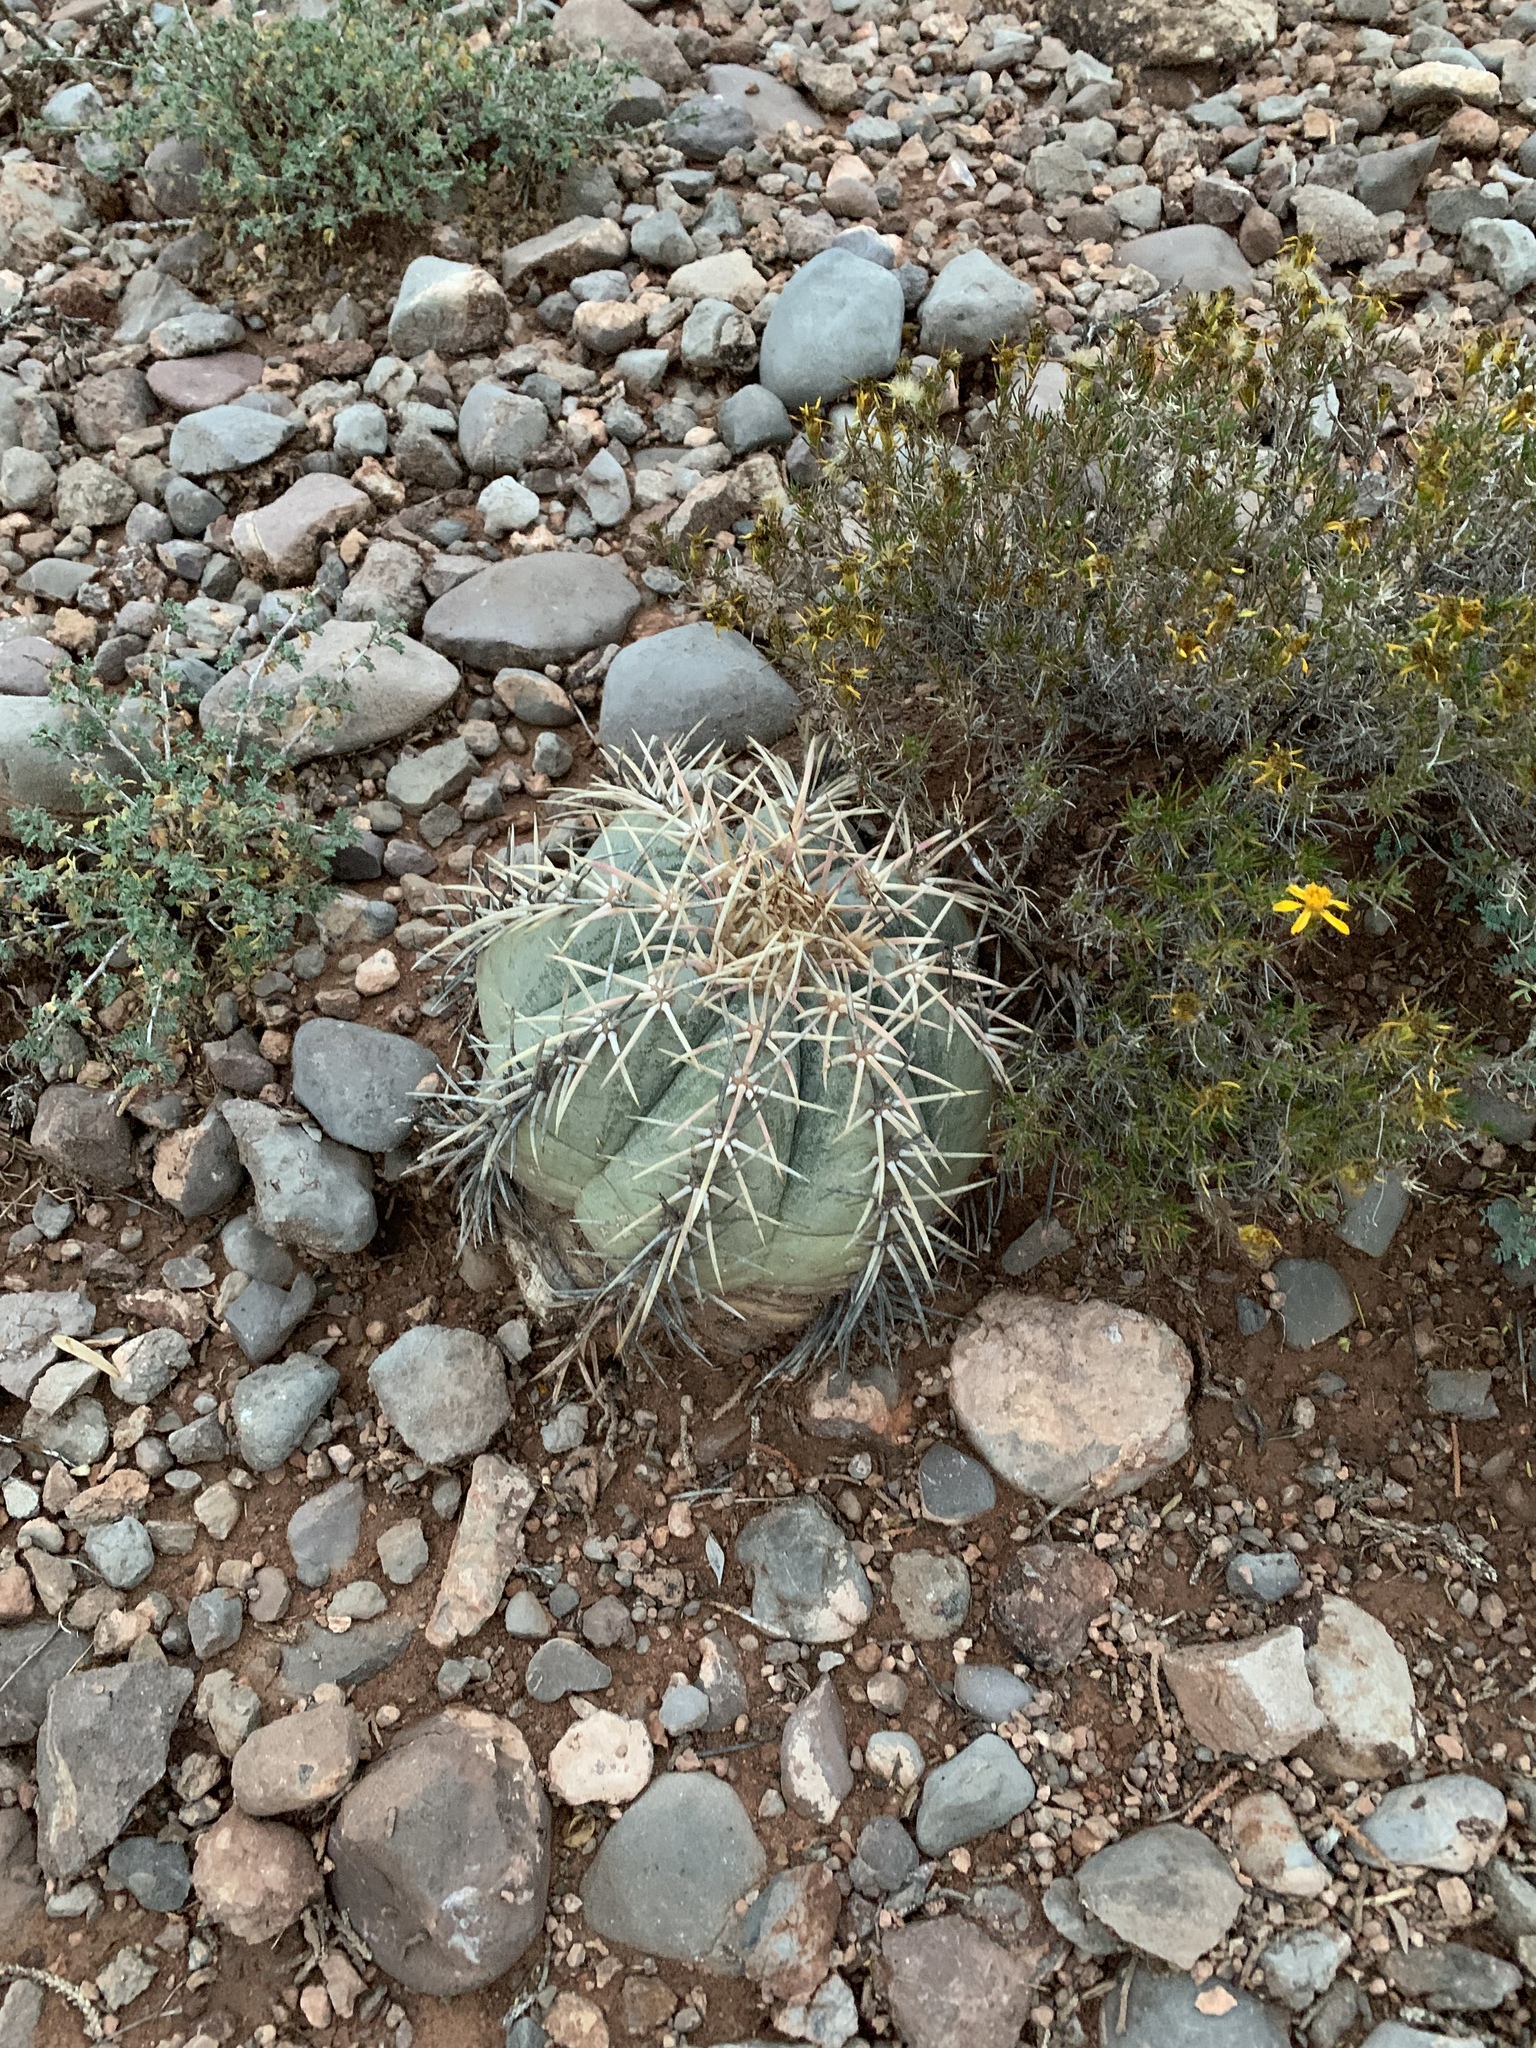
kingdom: Plantae
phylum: Tracheophyta
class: Magnoliopsida
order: Caryophyllales
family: Cactaceae
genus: Echinocactus
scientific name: Echinocactus horizonthalonius
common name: Devilshead
